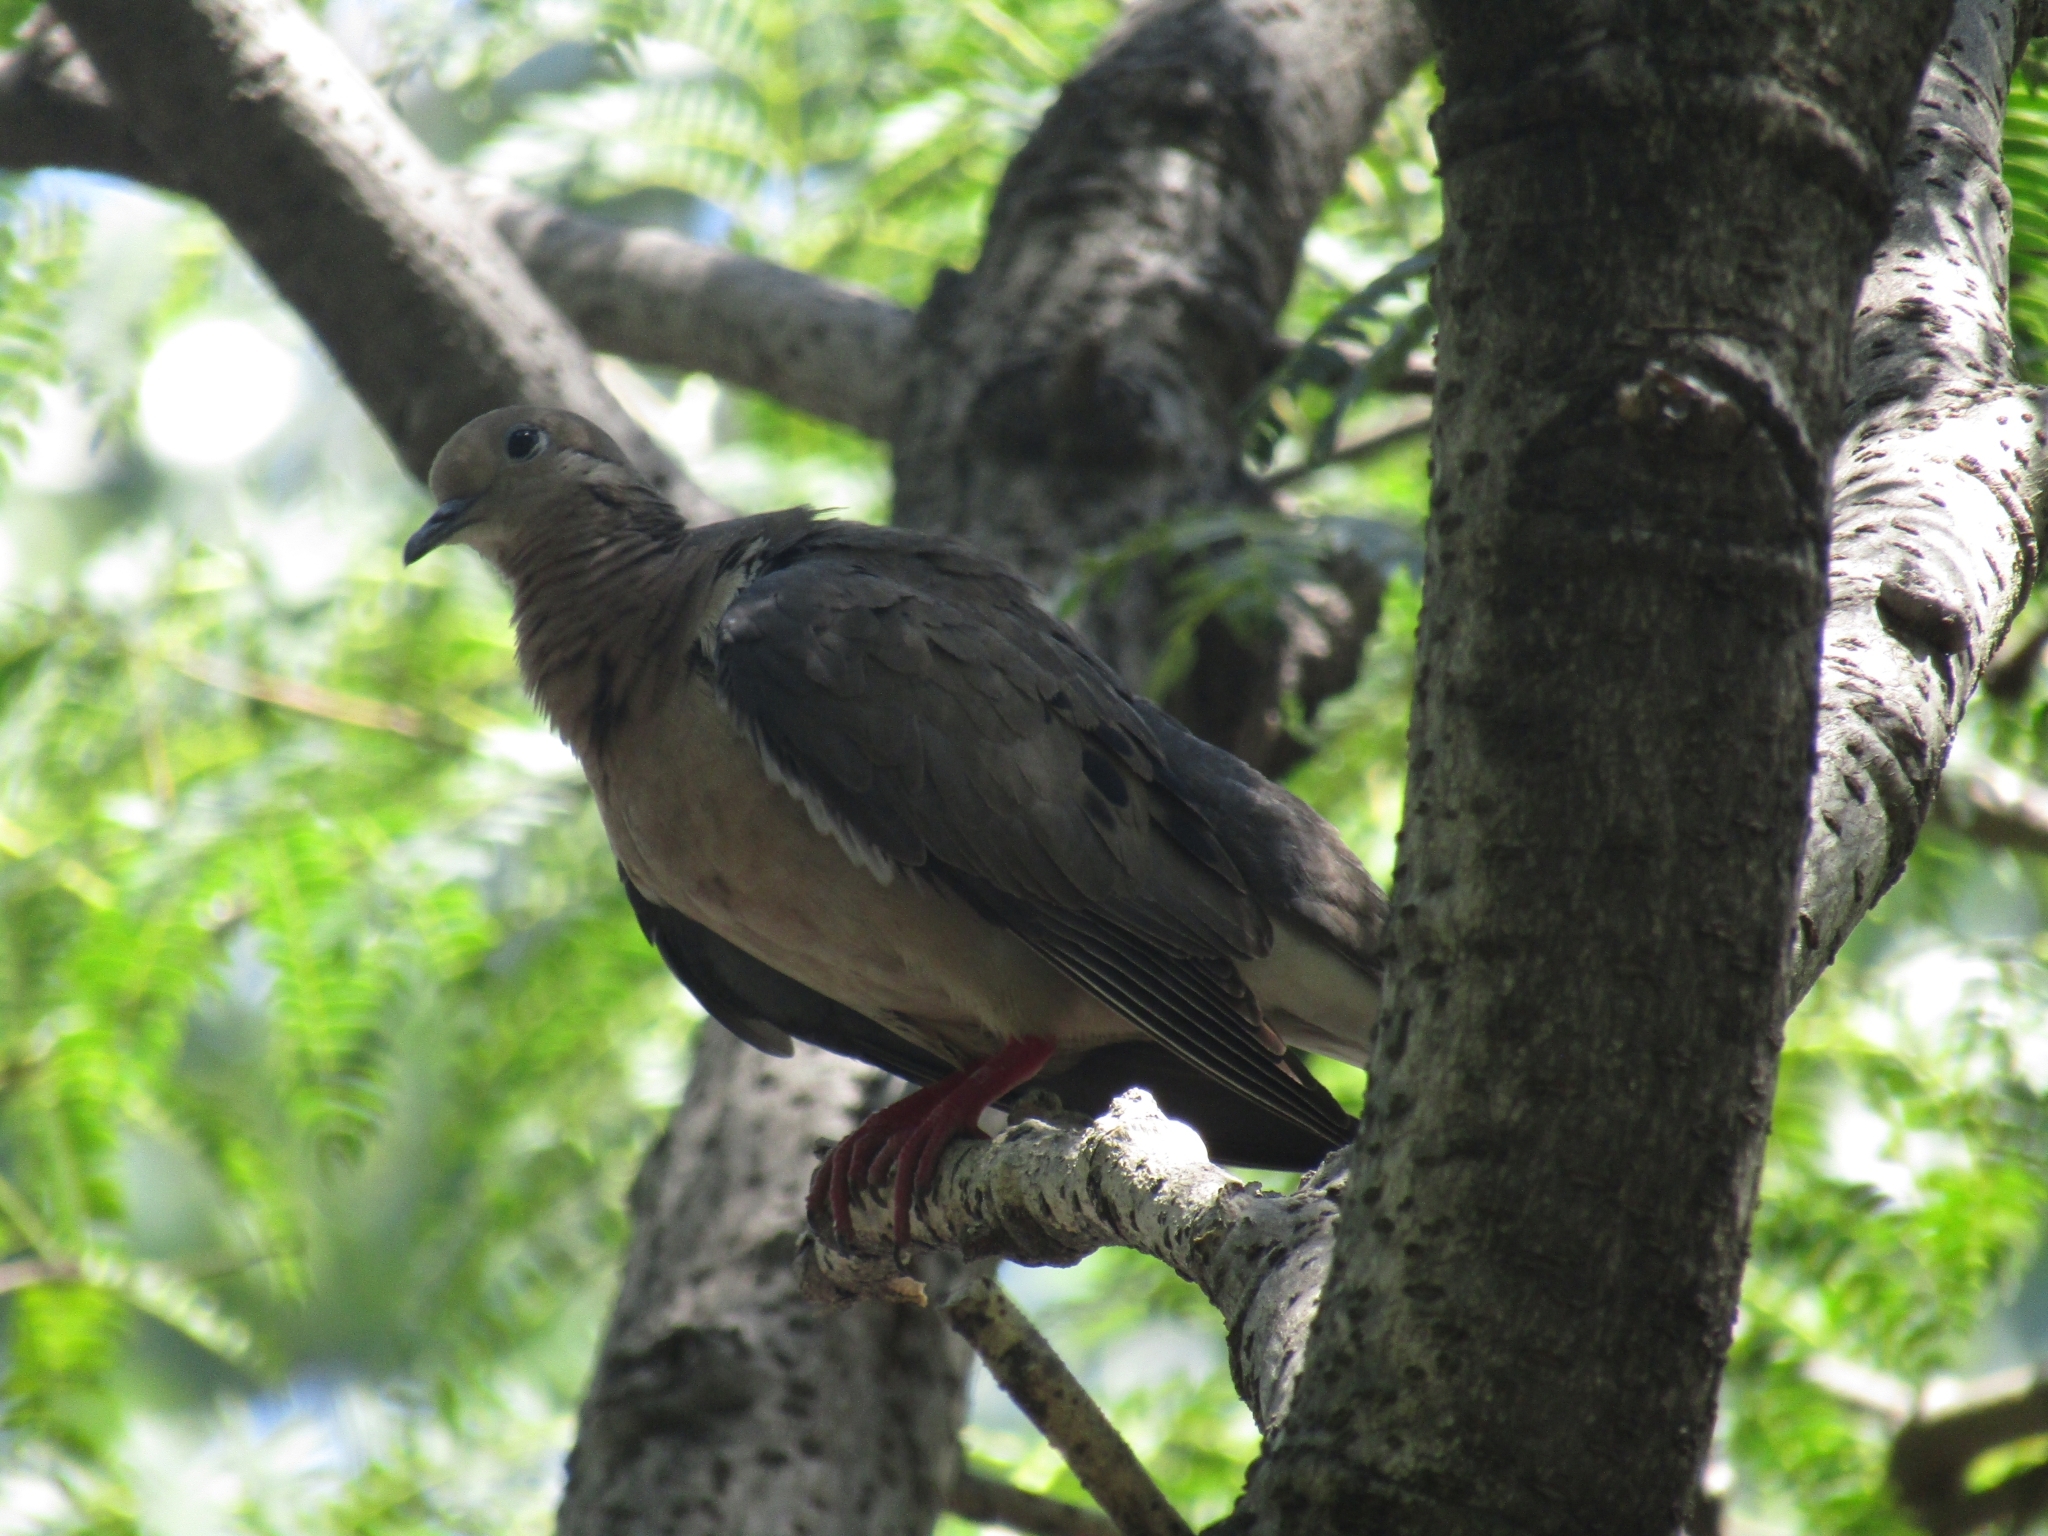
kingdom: Animalia
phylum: Chordata
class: Aves
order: Columbiformes
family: Columbidae
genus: Zenaida
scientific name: Zenaida auriculata
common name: Eared dove
